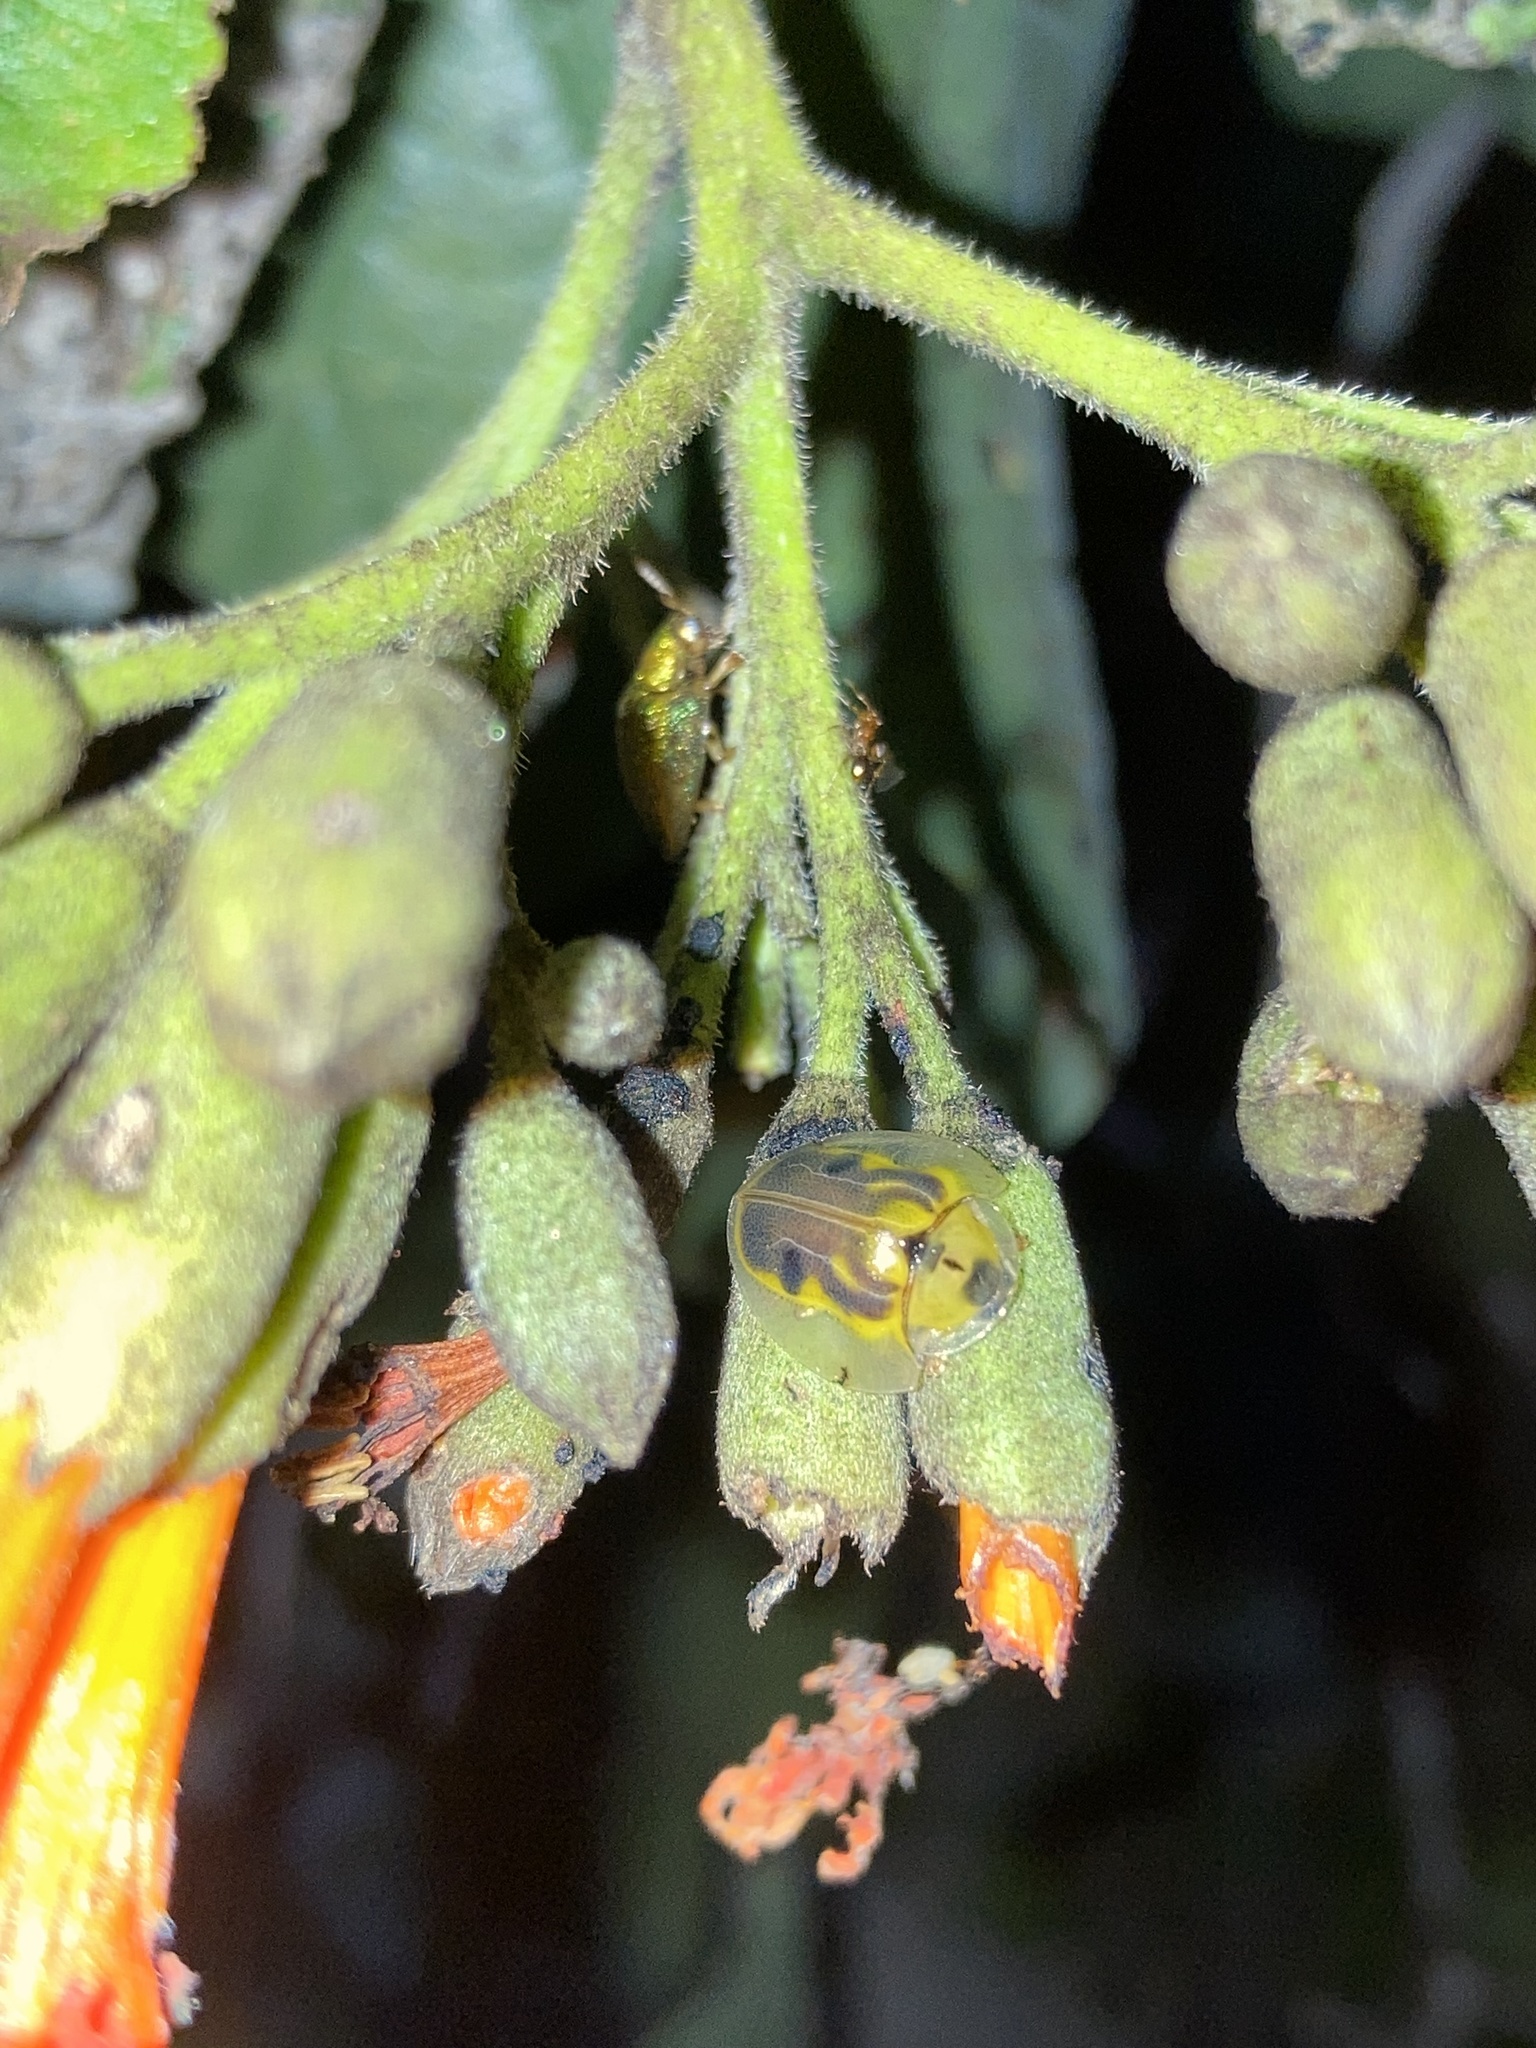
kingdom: Animalia
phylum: Arthropoda
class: Insecta
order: Coleoptera
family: Chrysomelidae
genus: Eurypepla
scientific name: Eurypepla calochroma
